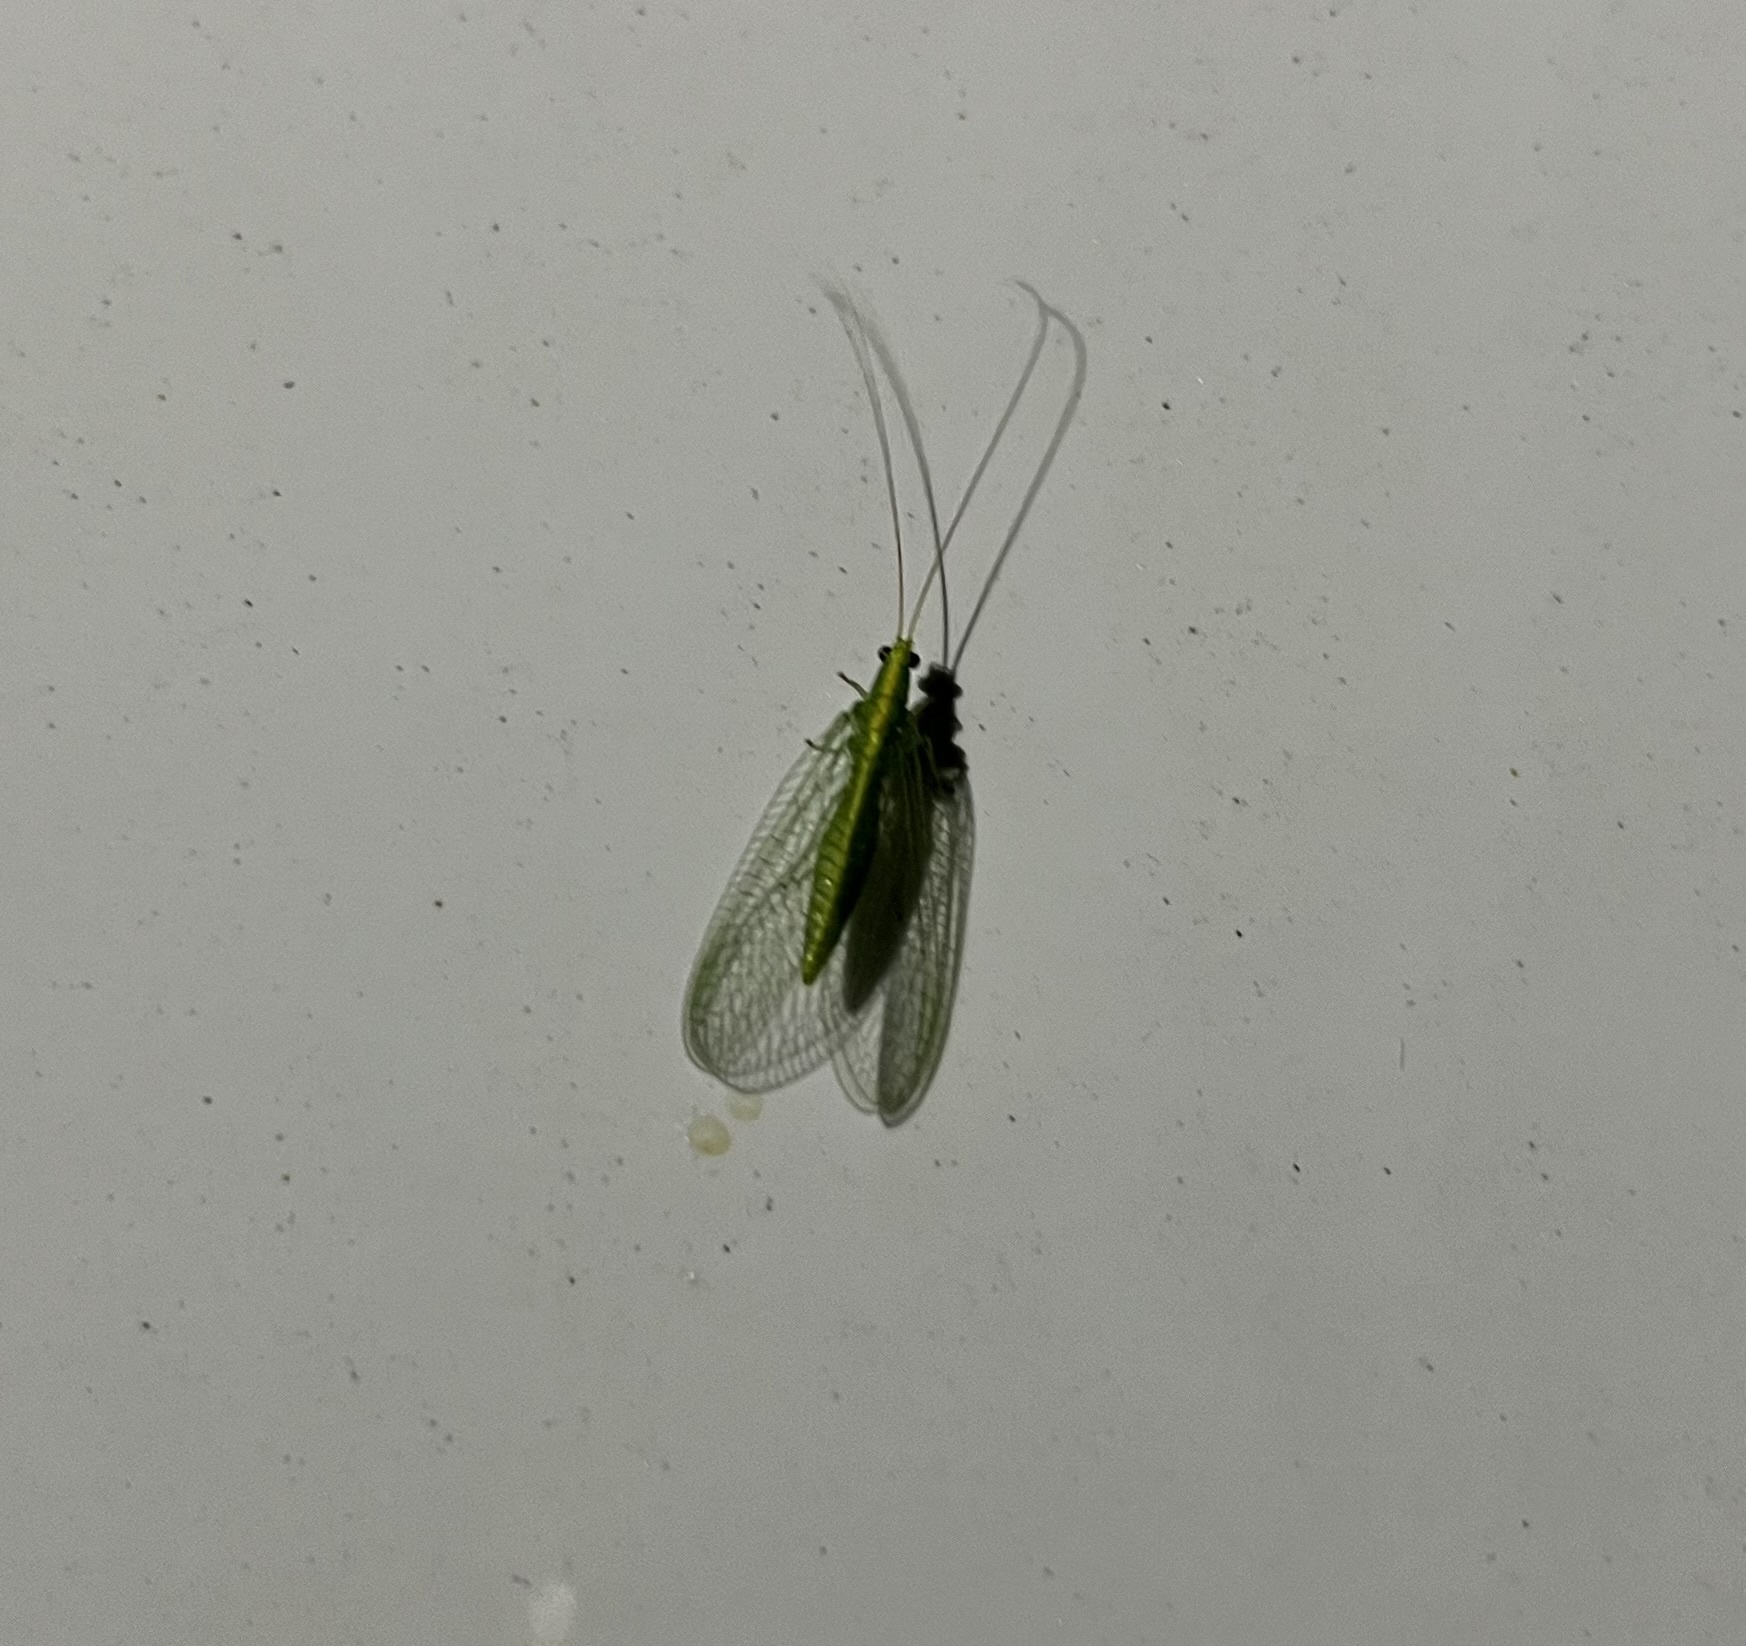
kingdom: Animalia
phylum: Arthropoda
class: Insecta
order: Neuroptera
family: Chrysopidae
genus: Mallada
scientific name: Mallada basalis
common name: Green lacewing
